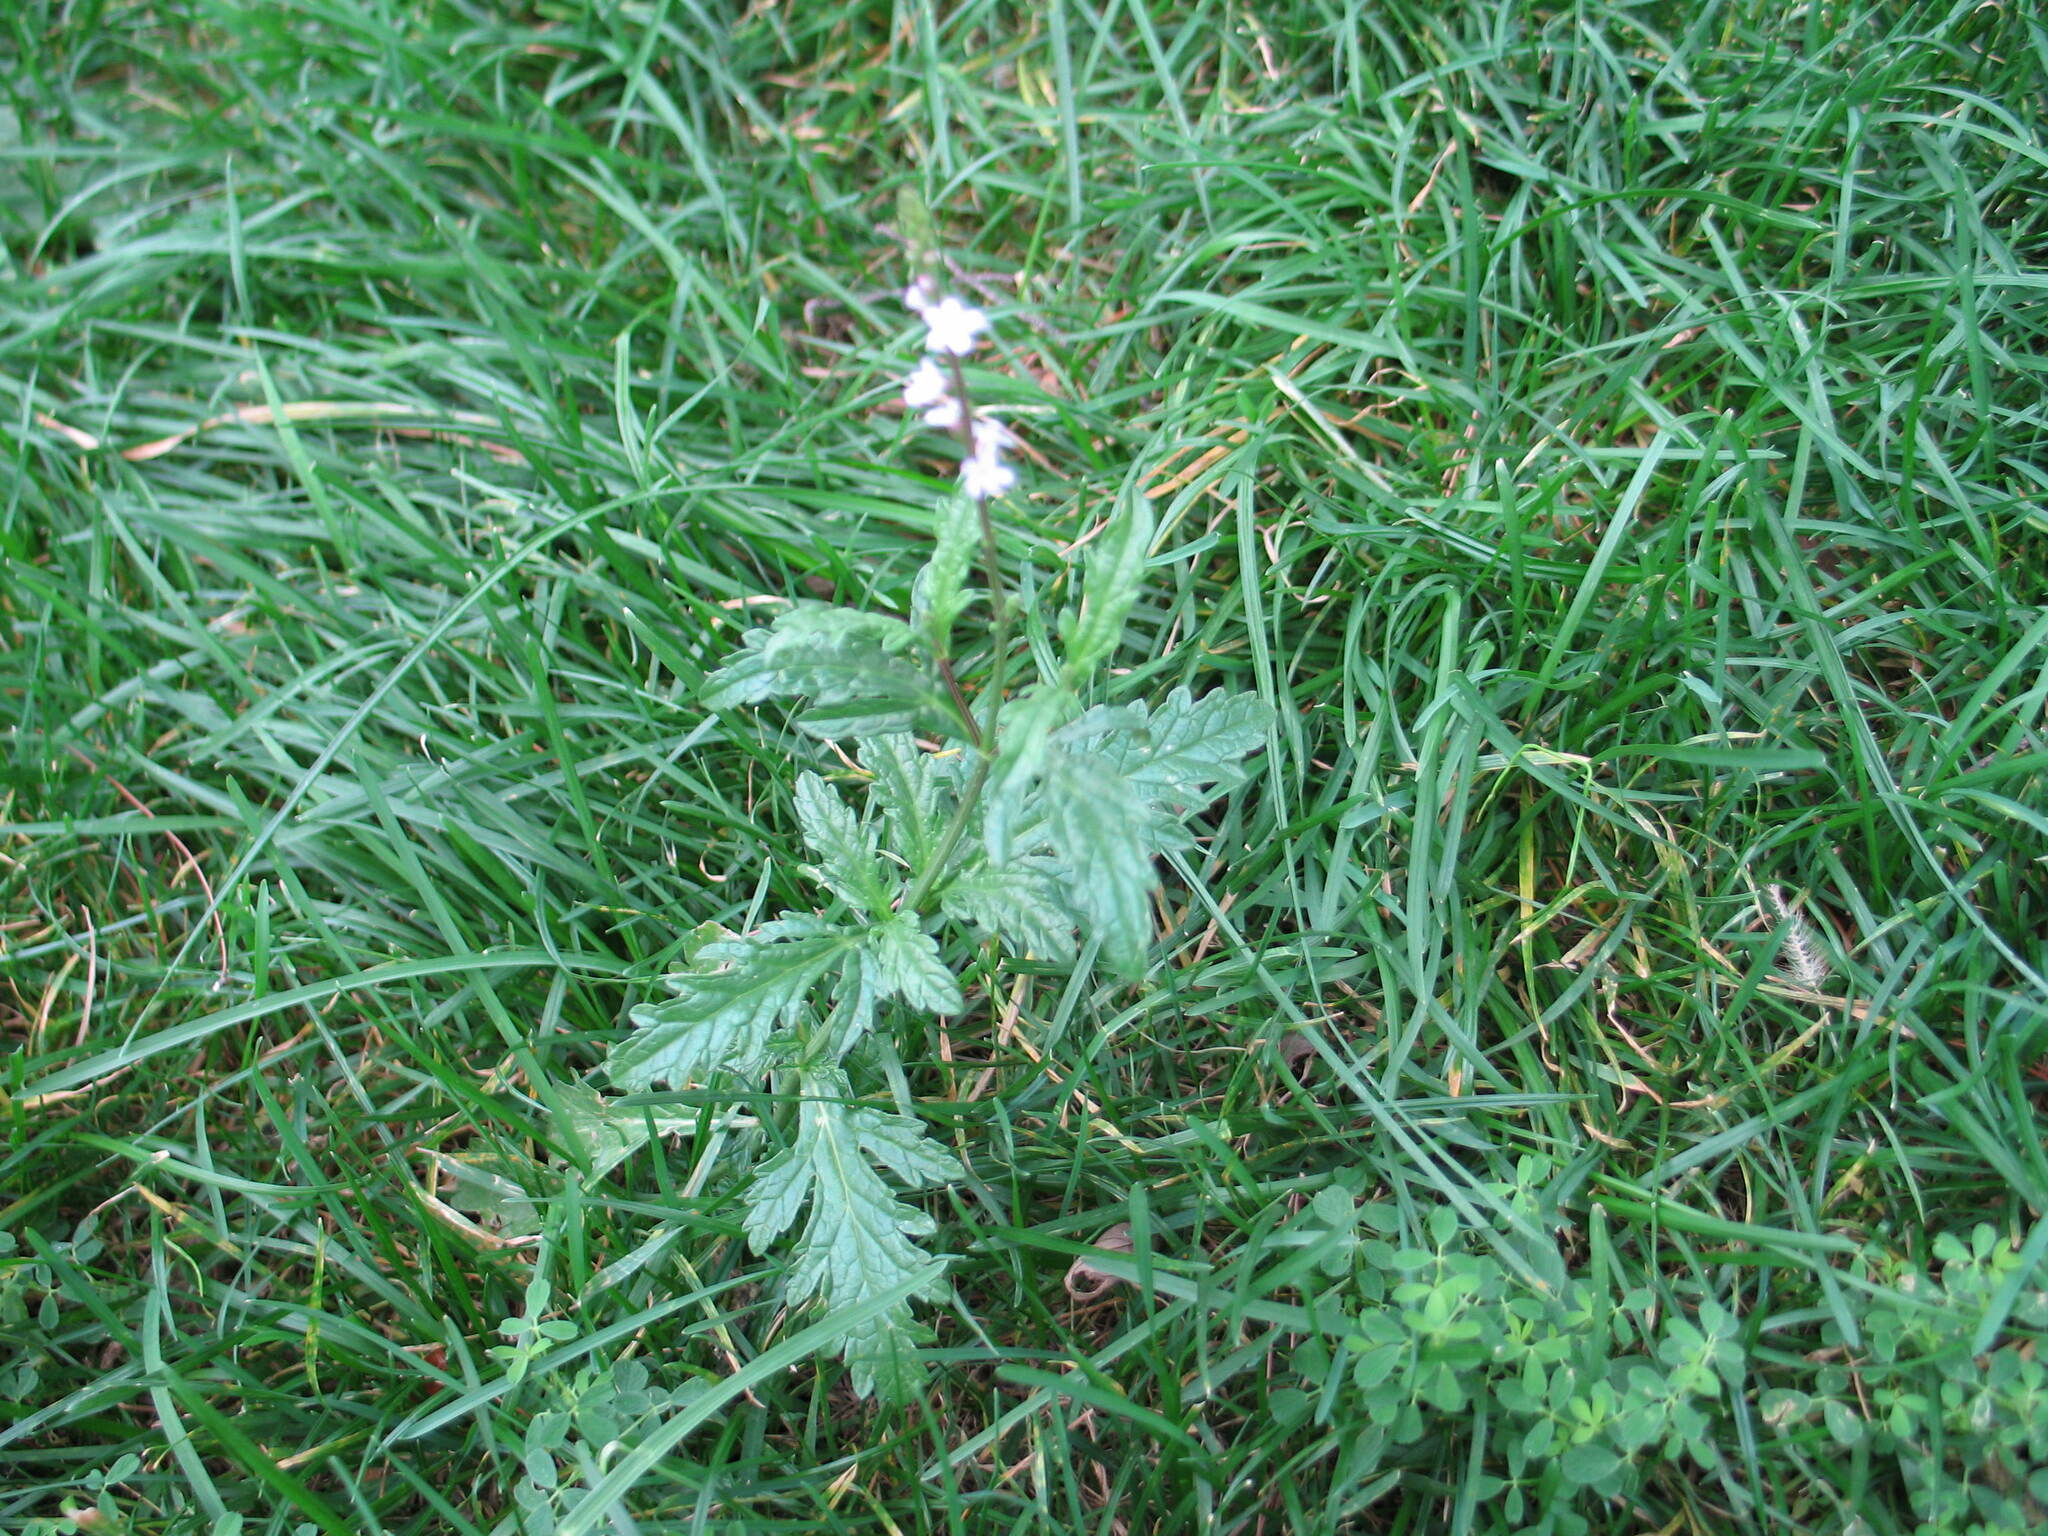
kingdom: Plantae
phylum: Tracheophyta
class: Magnoliopsida
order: Lamiales
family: Verbenaceae
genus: Verbena
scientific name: Verbena officinalis
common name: Vervain
